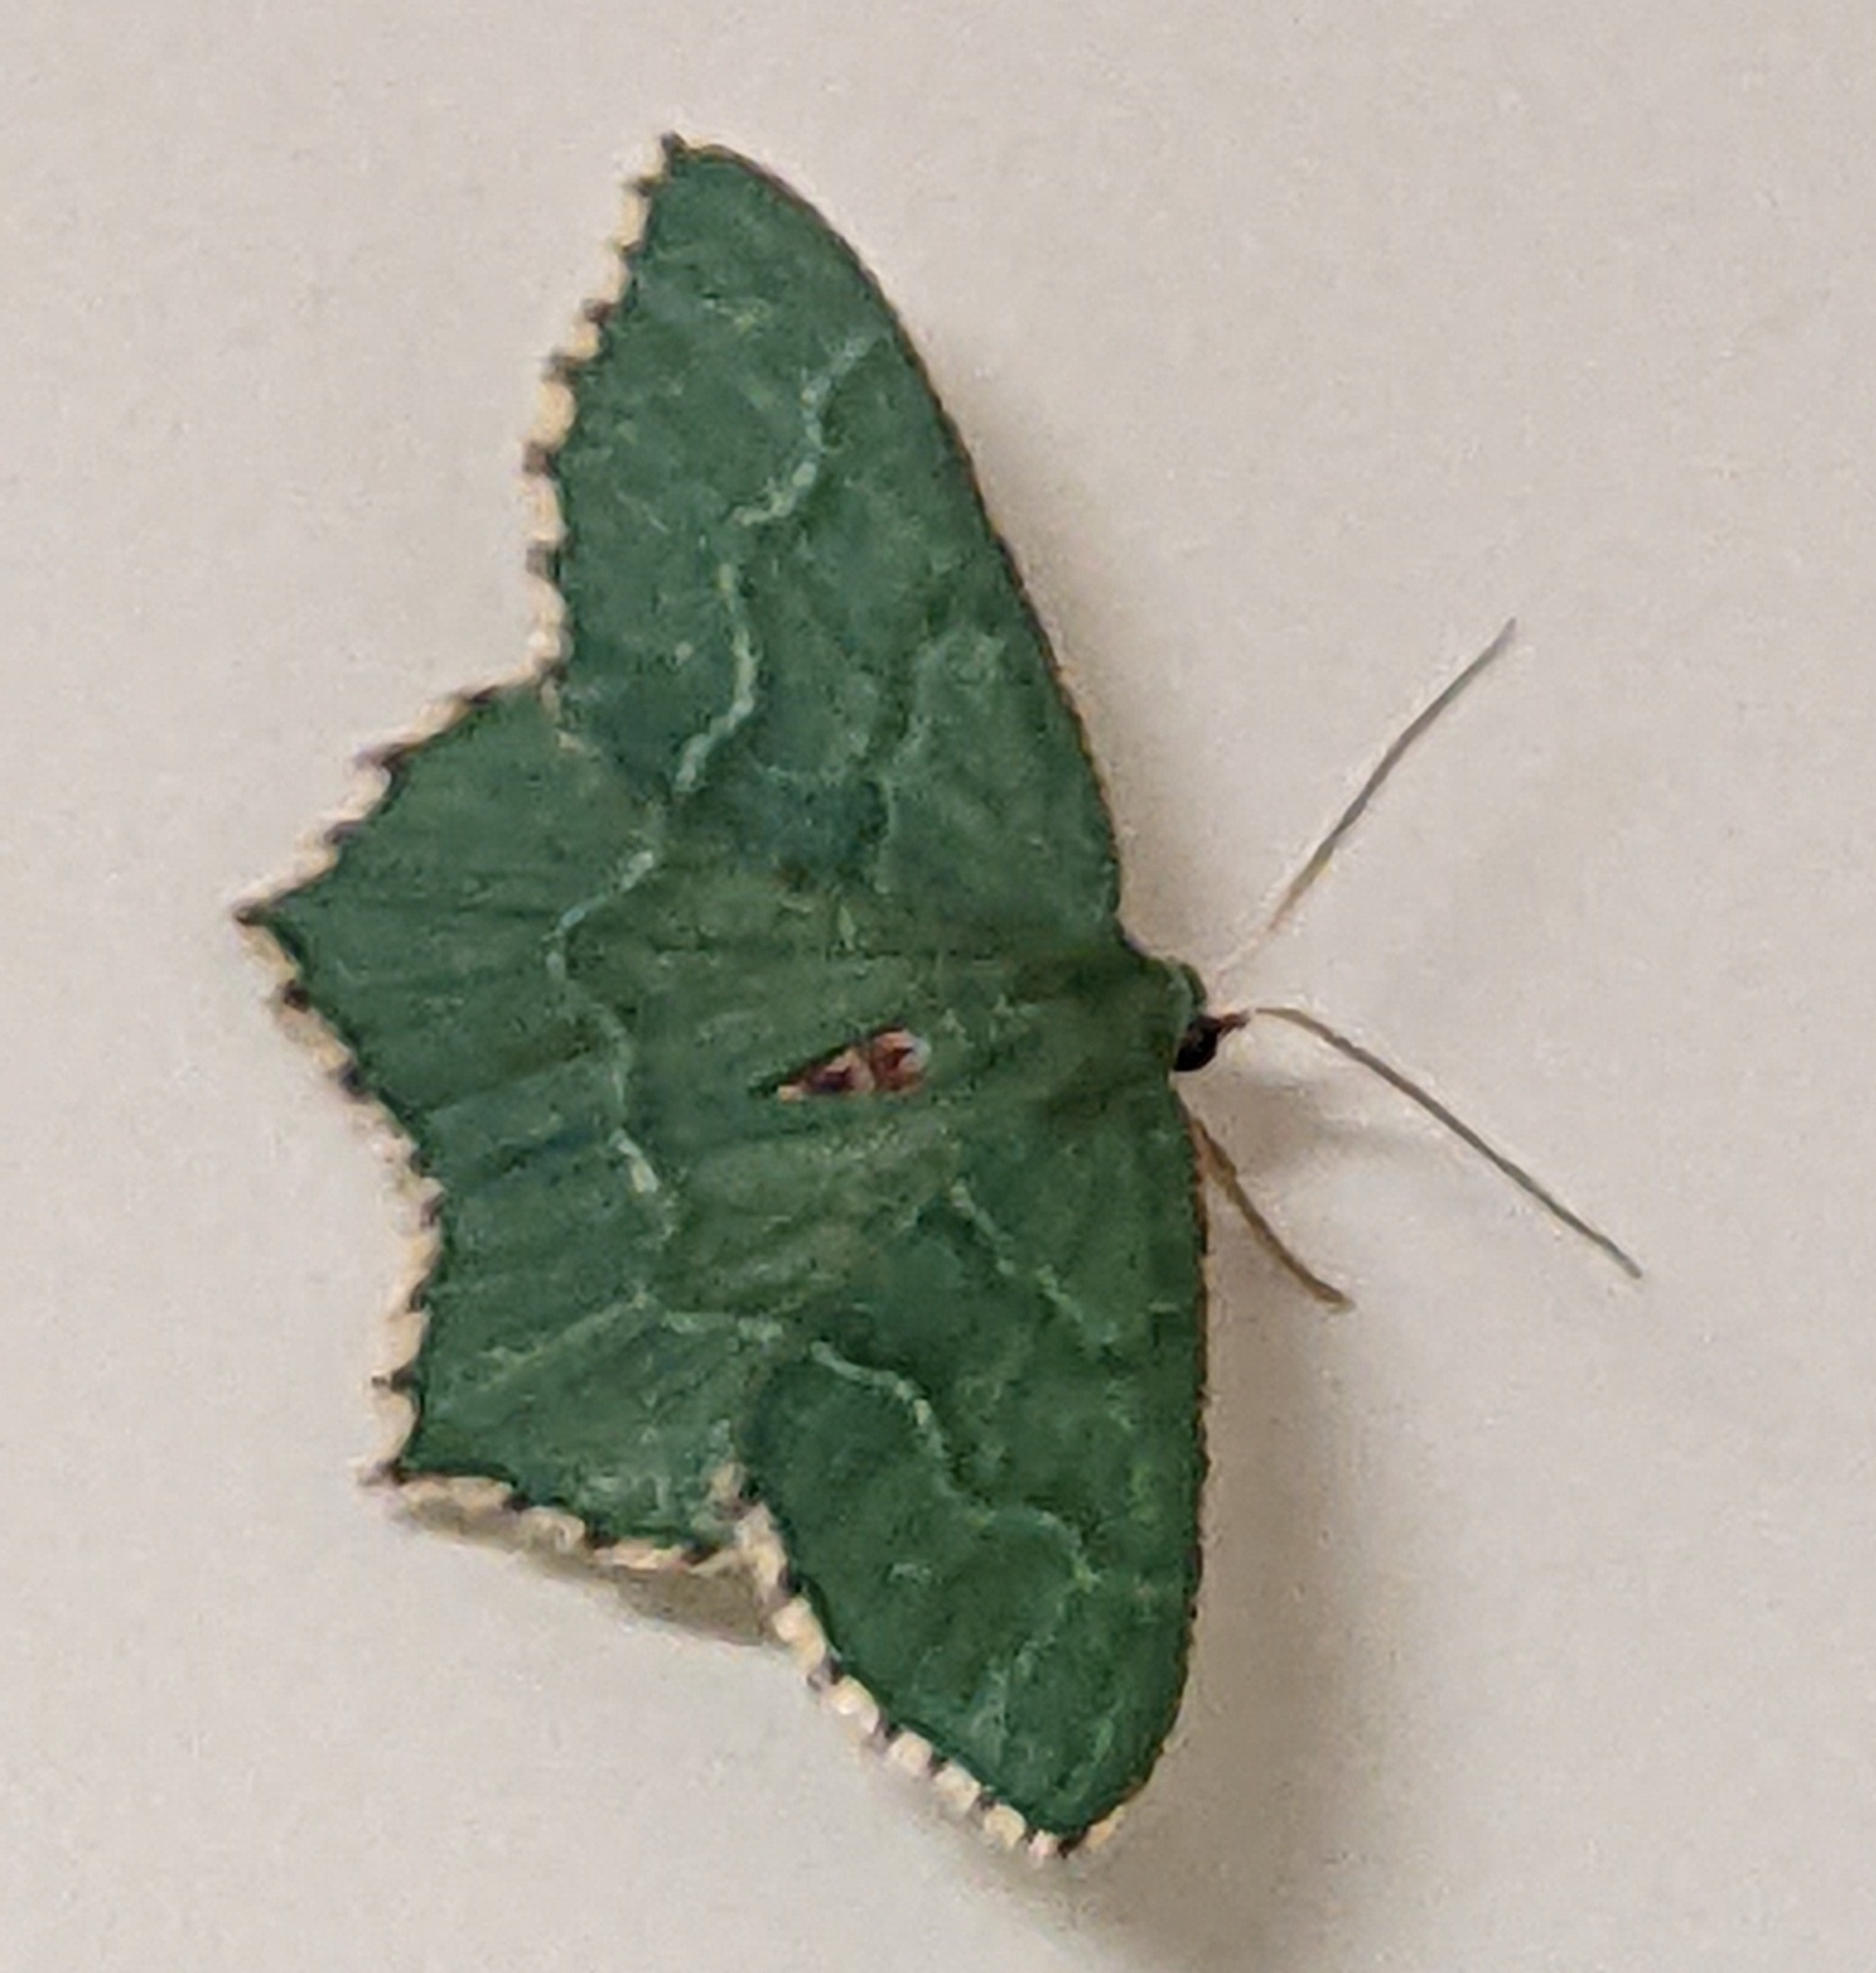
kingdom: Animalia
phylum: Arthropoda
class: Insecta
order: Lepidoptera
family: Geometridae
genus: Hemithea
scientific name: Hemithea aestivaria
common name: Common emerald
